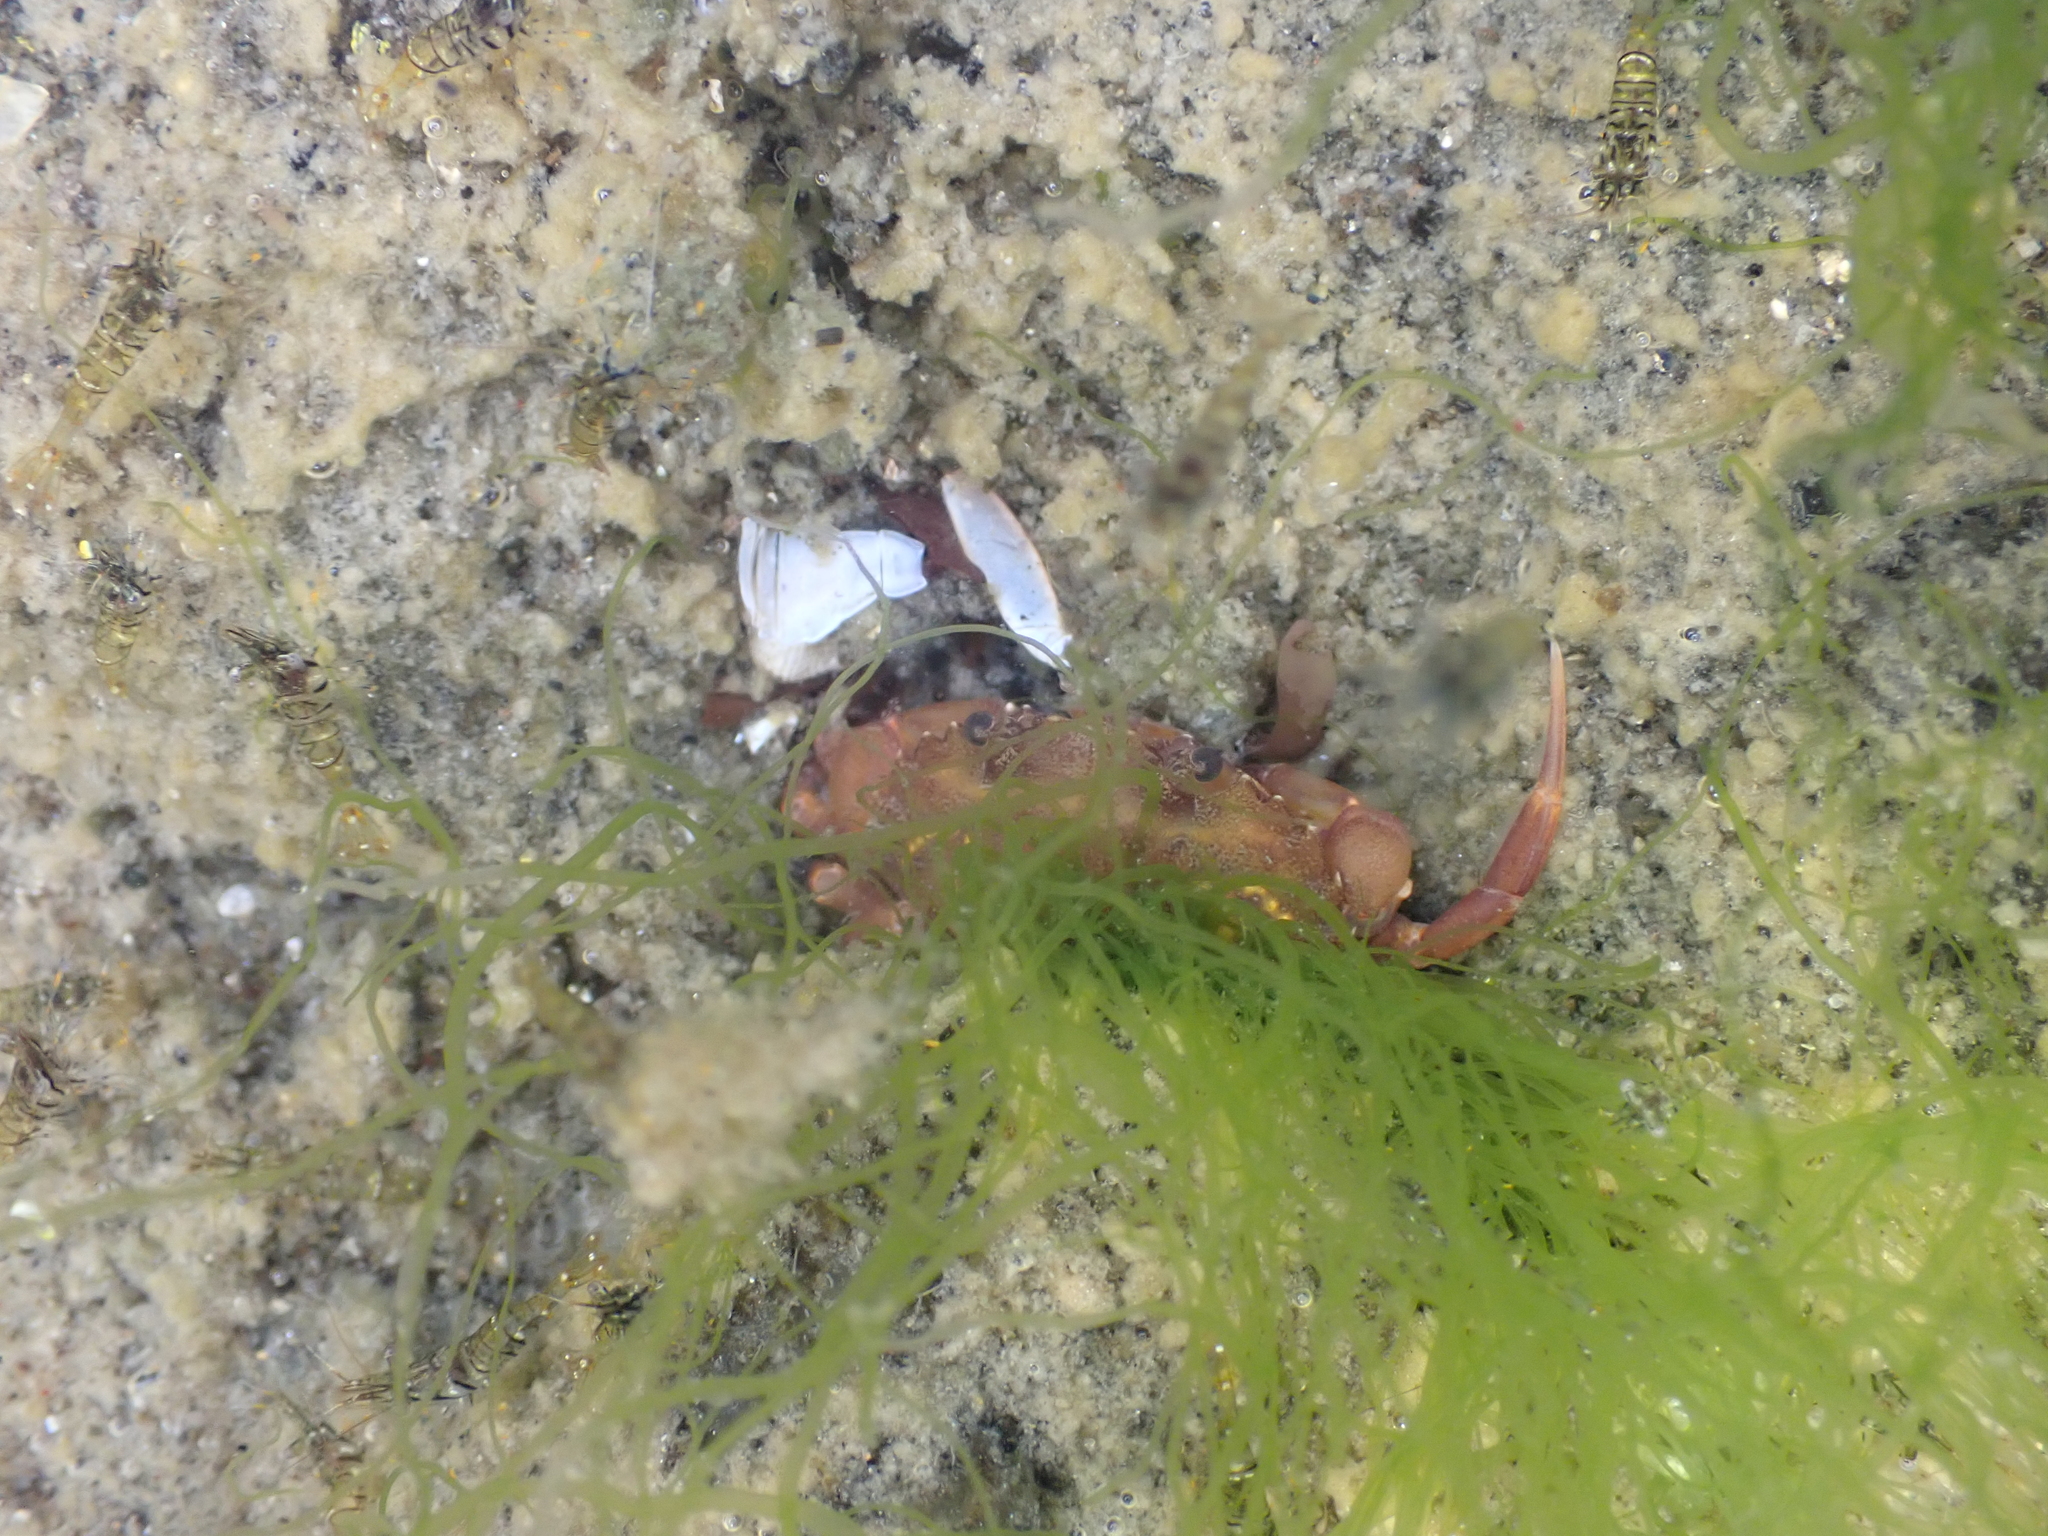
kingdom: Animalia
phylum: Arthropoda
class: Malacostraca
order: Decapoda
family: Carcinidae
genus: Carcinus
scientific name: Carcinus maenas
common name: European green crab
